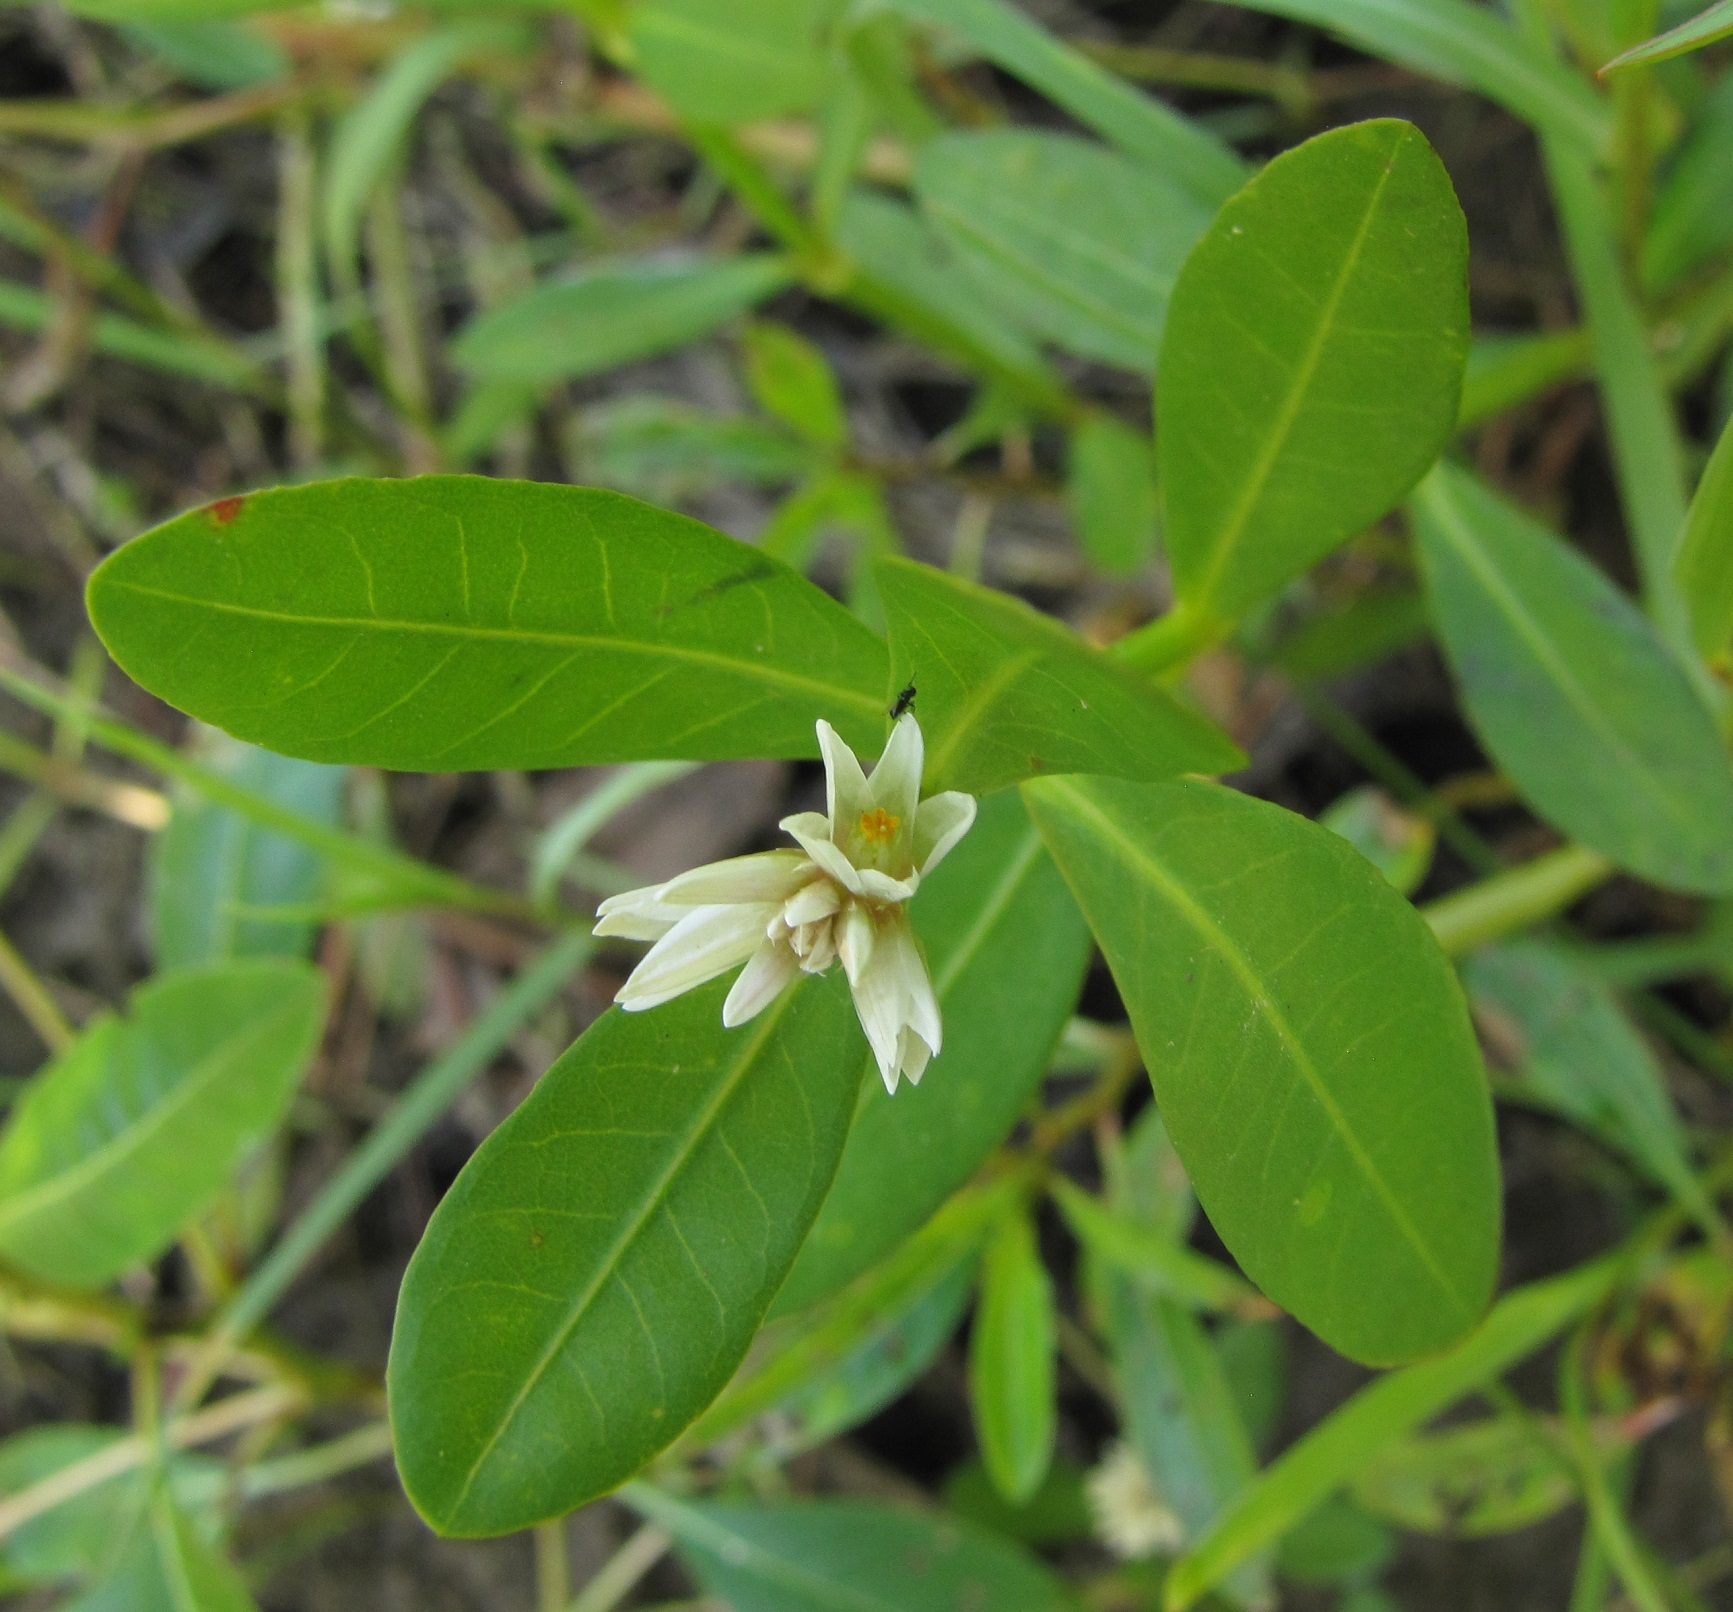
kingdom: Plantae
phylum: Tracheophyta
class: Magnoliopsida
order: Caryophyllales
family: Amaranthaceae
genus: Alternanthera
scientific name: Alternanthera philoxeroides
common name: Alligatorweed
